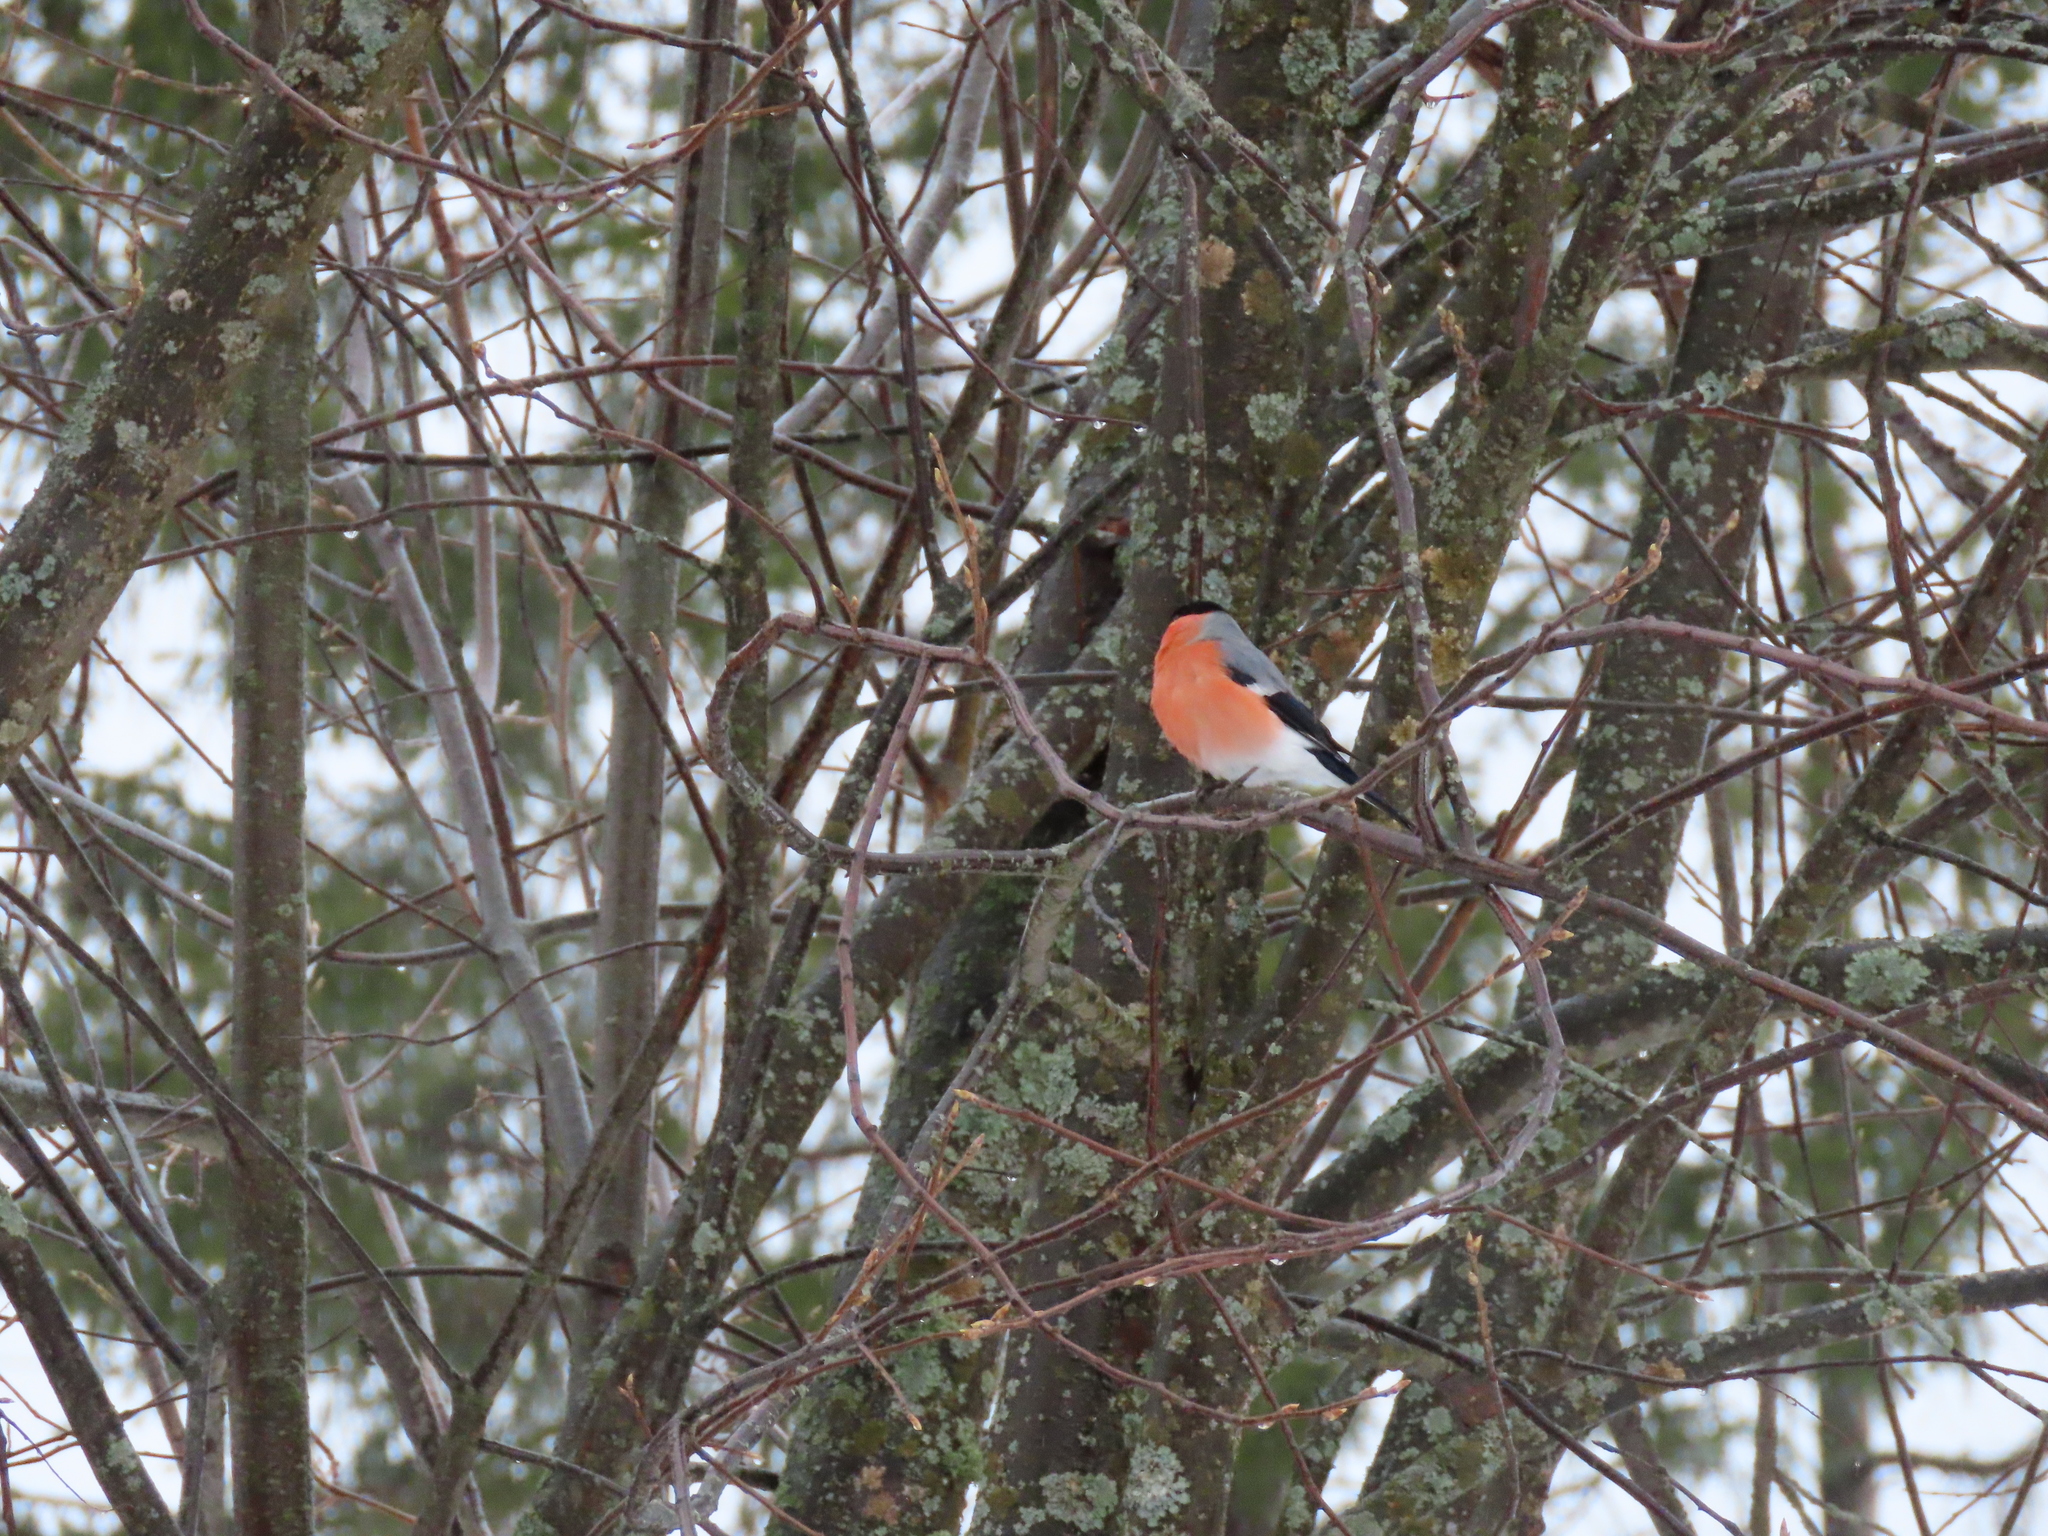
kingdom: Animalia
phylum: Chordata
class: Aves
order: Passeriformes
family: Fringillidae
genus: Pyrrhula
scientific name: Pyrrhula pyrrhula
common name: Eurasian bullfinch
